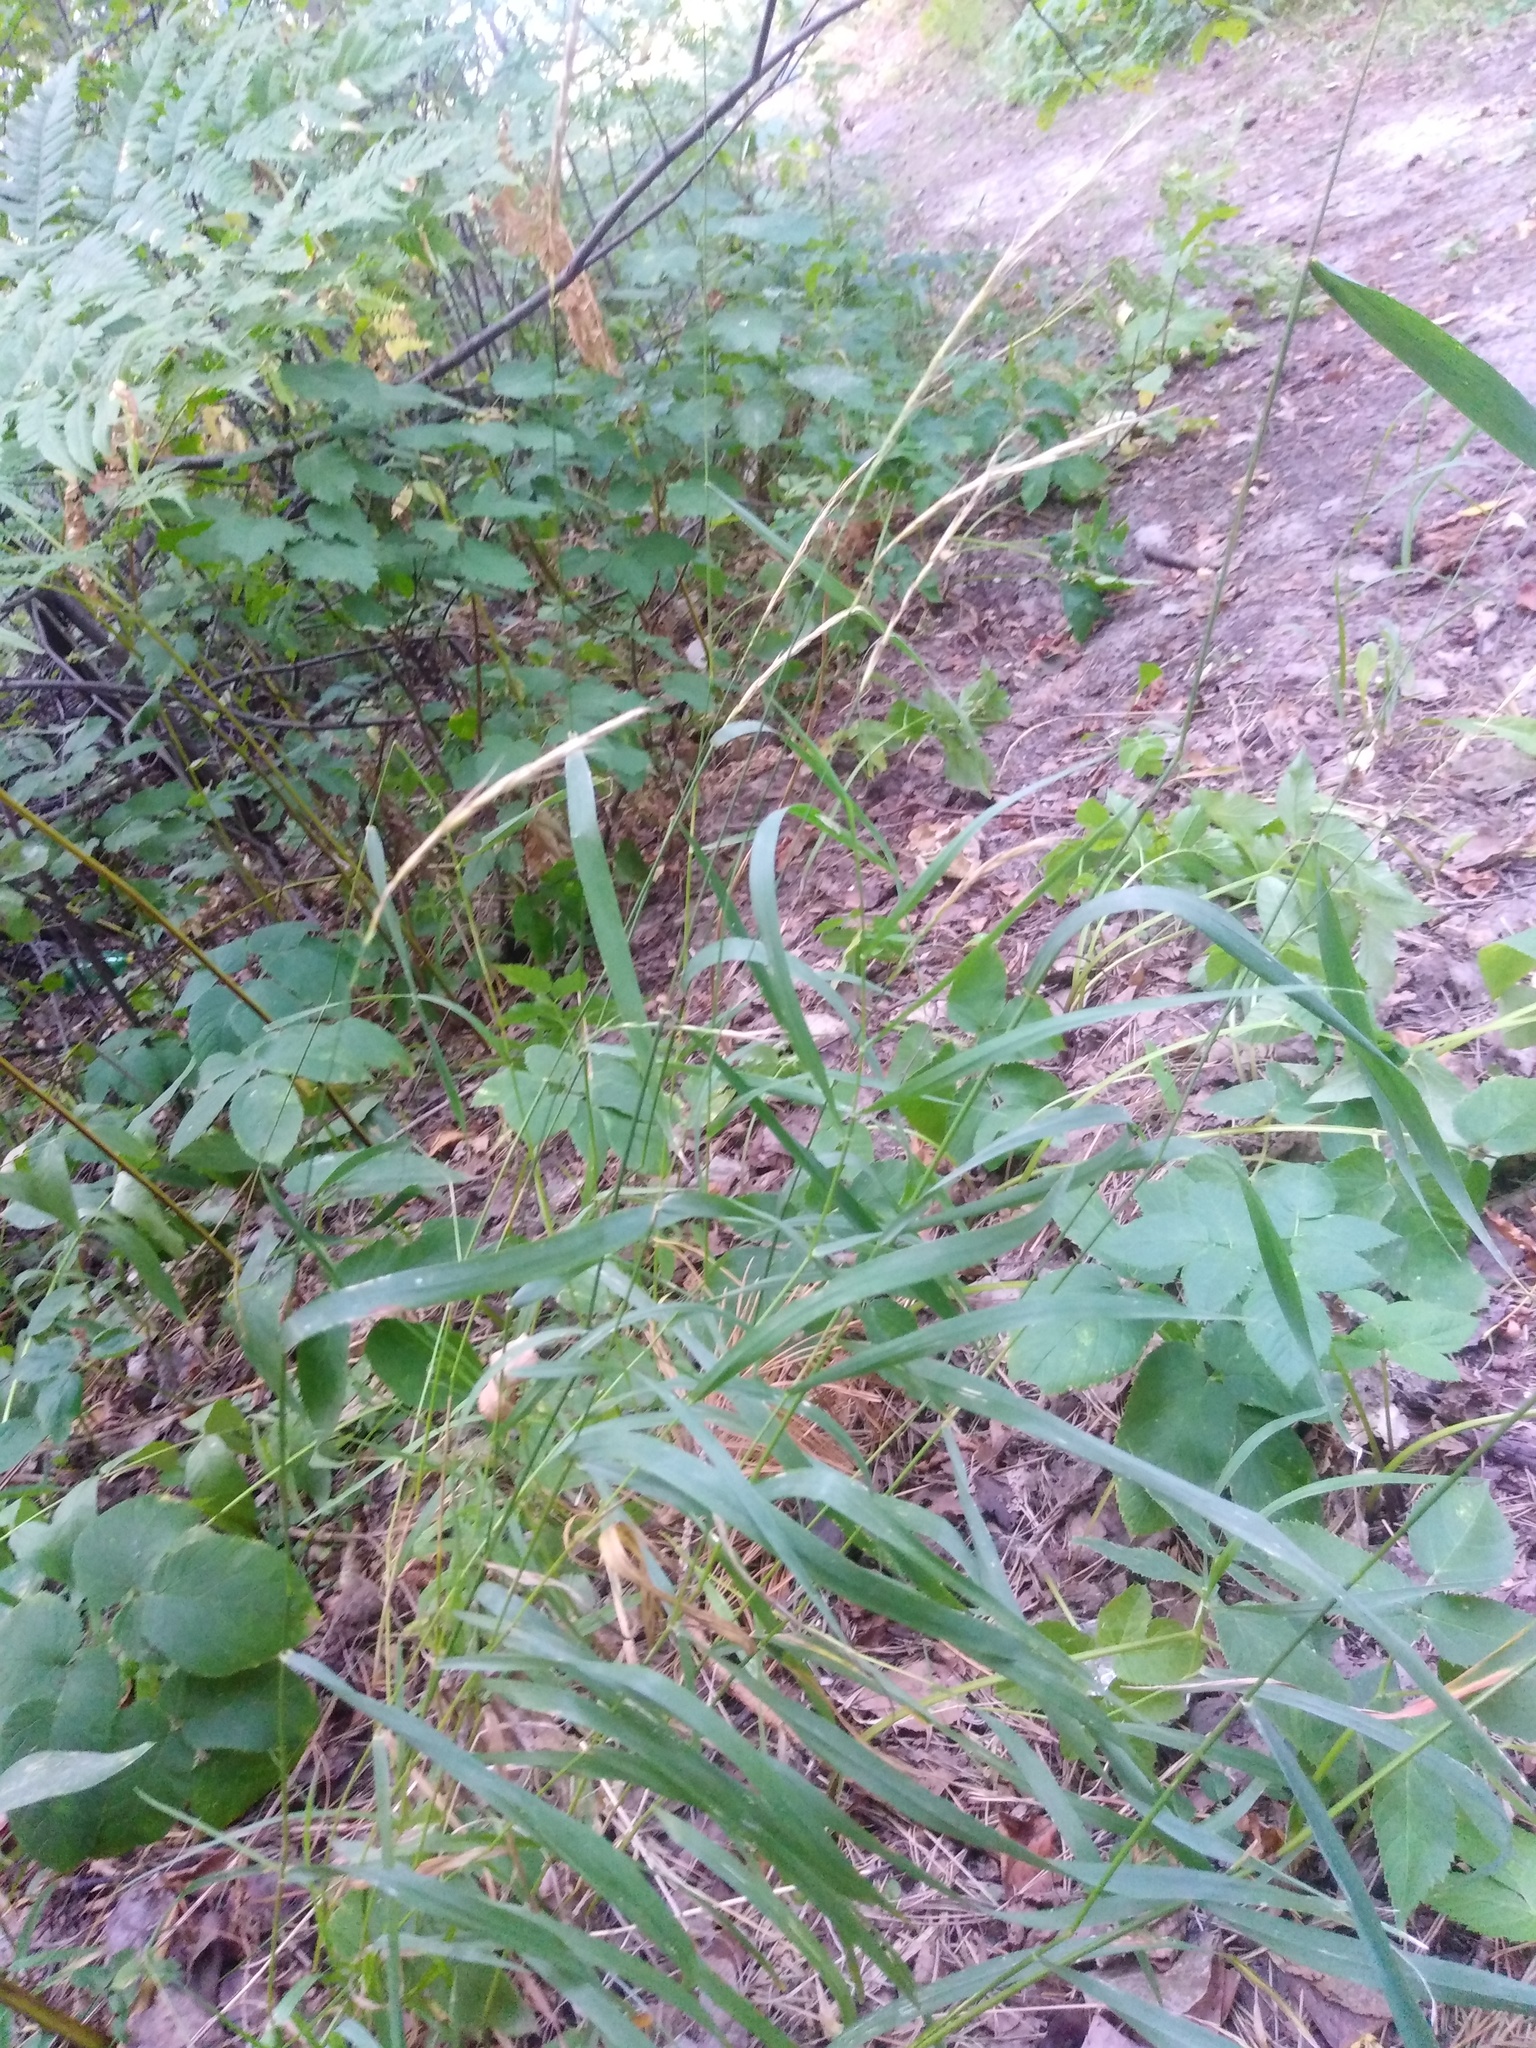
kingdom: Plantae
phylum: Tracheophyta
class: Liliopsida
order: Poales
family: Poaceae
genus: Elymus
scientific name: Elymus caninus
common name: Bearded couch
